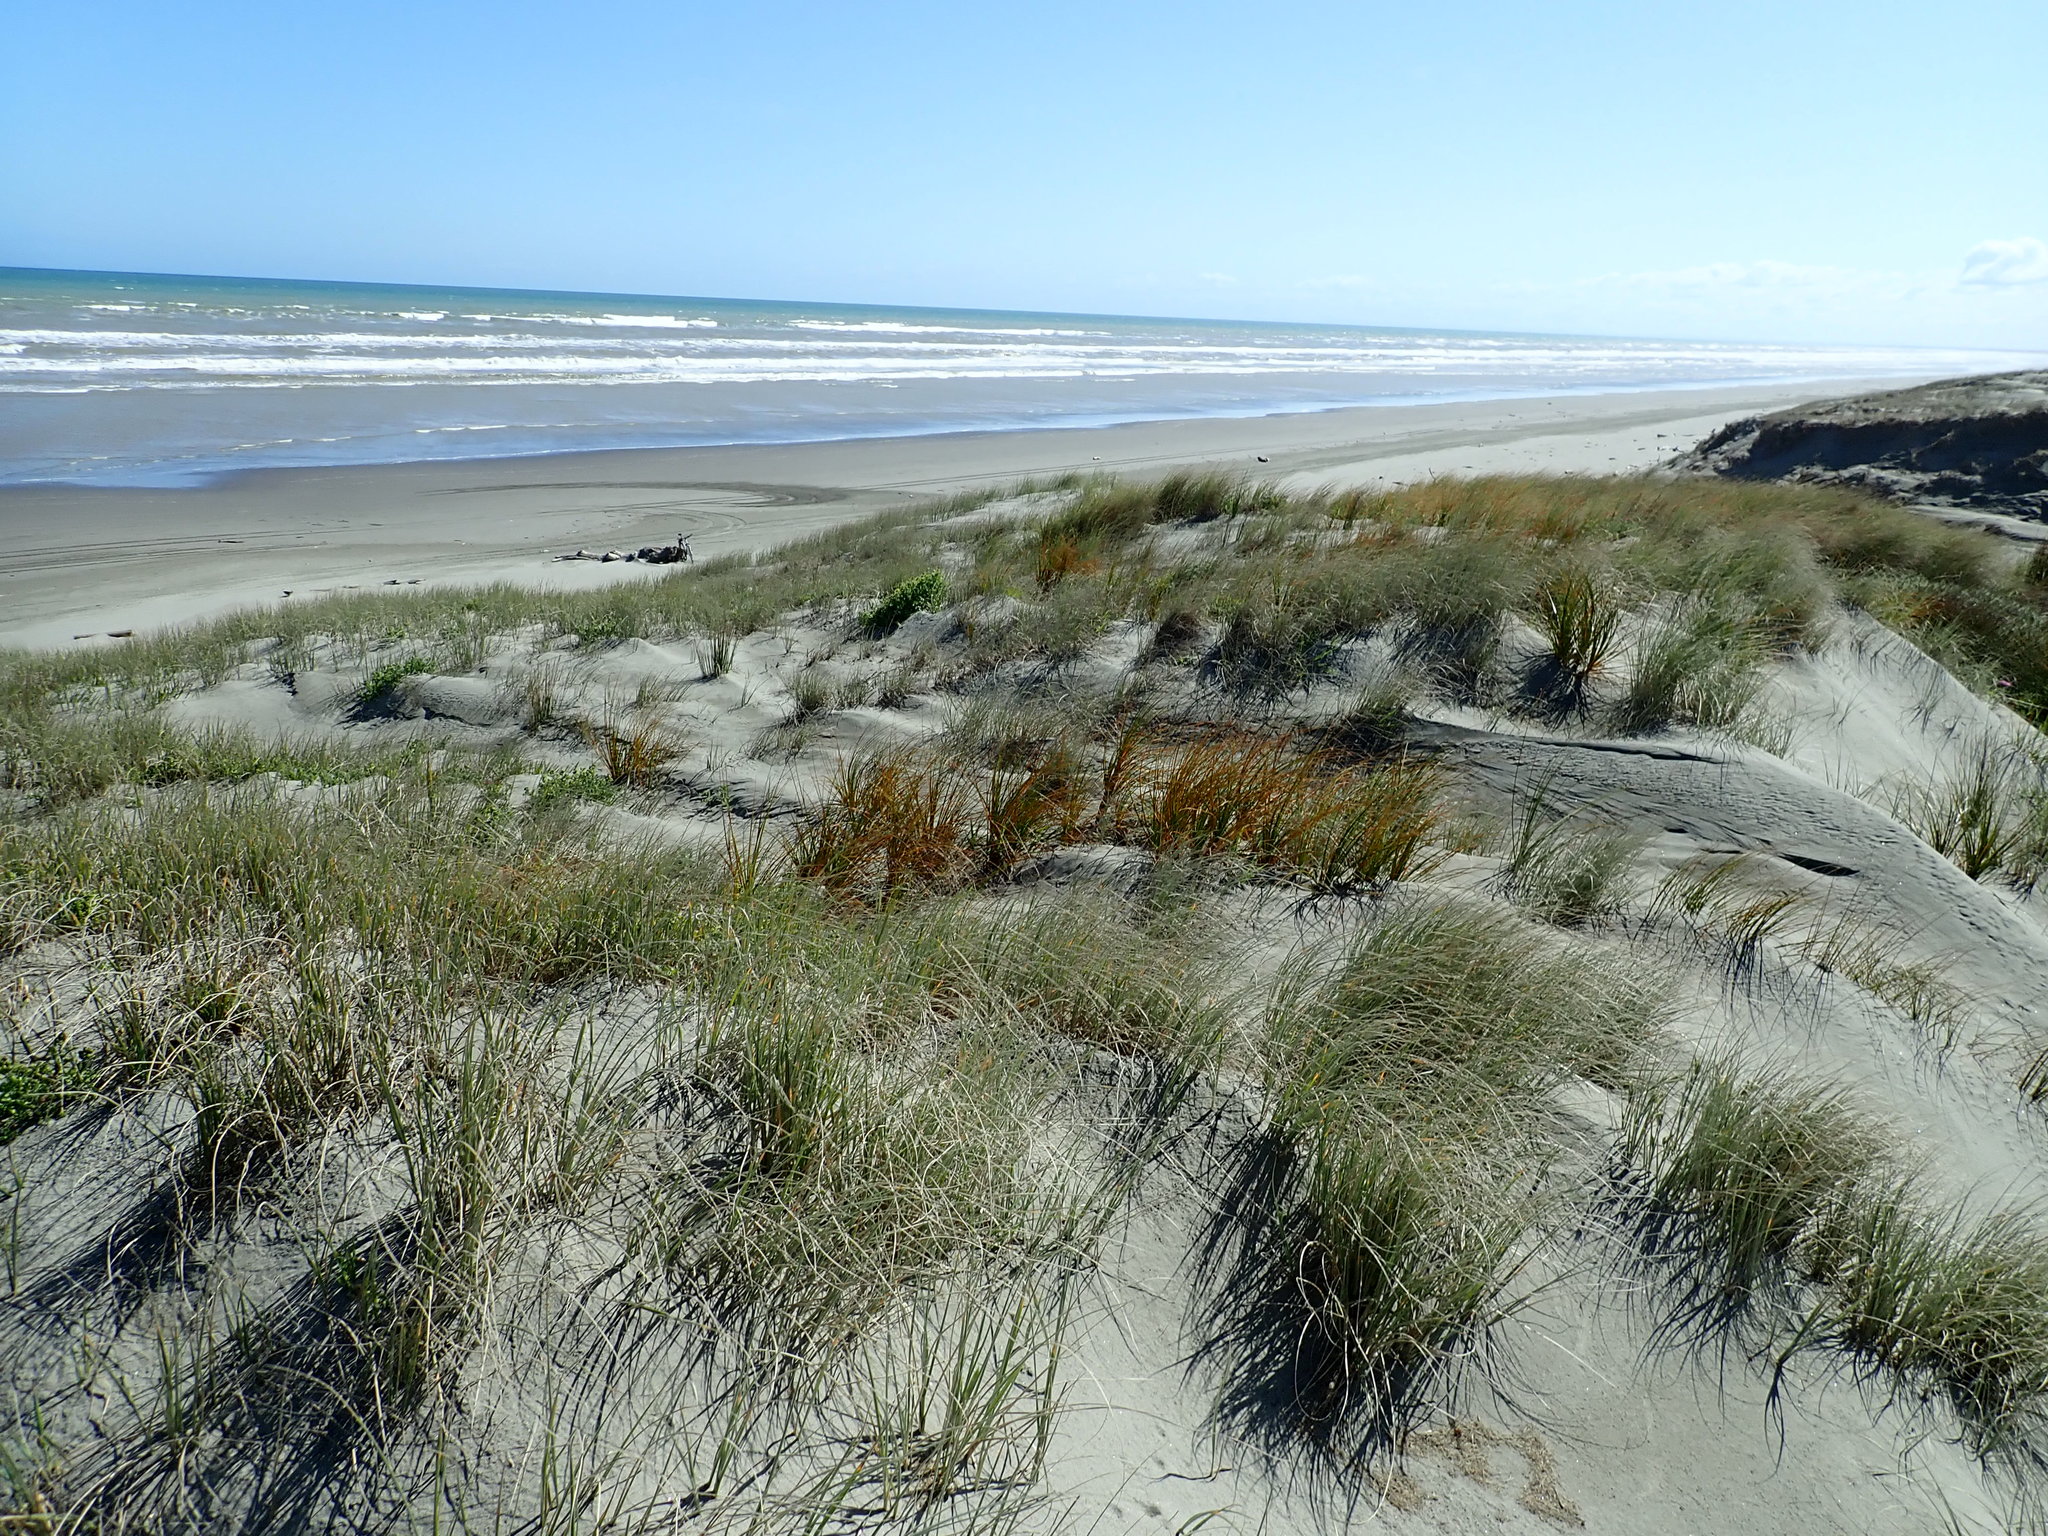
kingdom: Plantae
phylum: Tracheophyta
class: Liliopsida
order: Poales
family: Cyperaceae
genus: Ficinia
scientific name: Ficinia spiralis
